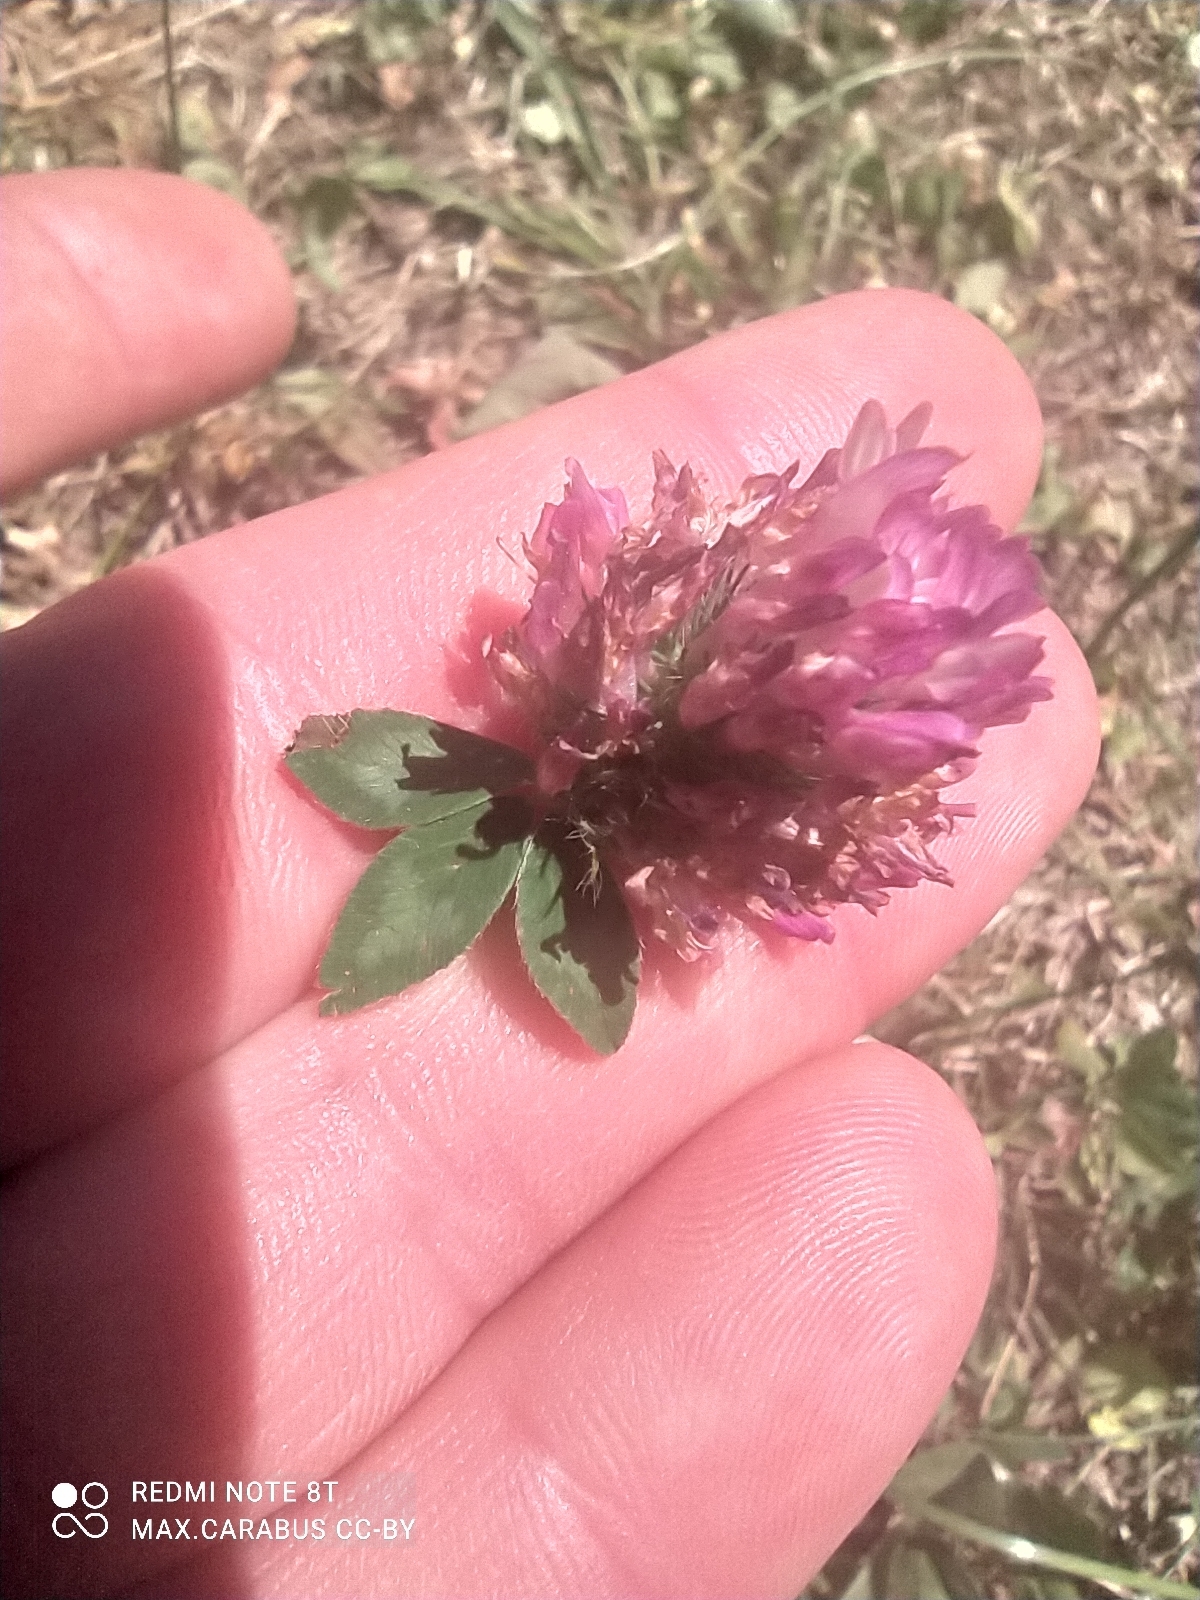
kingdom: Plantae
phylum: Tracheophyta
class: Magnoliopsida
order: Fabales
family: Fabaceae
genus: Trifolium
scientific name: Trifolium pratense
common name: Red clover
